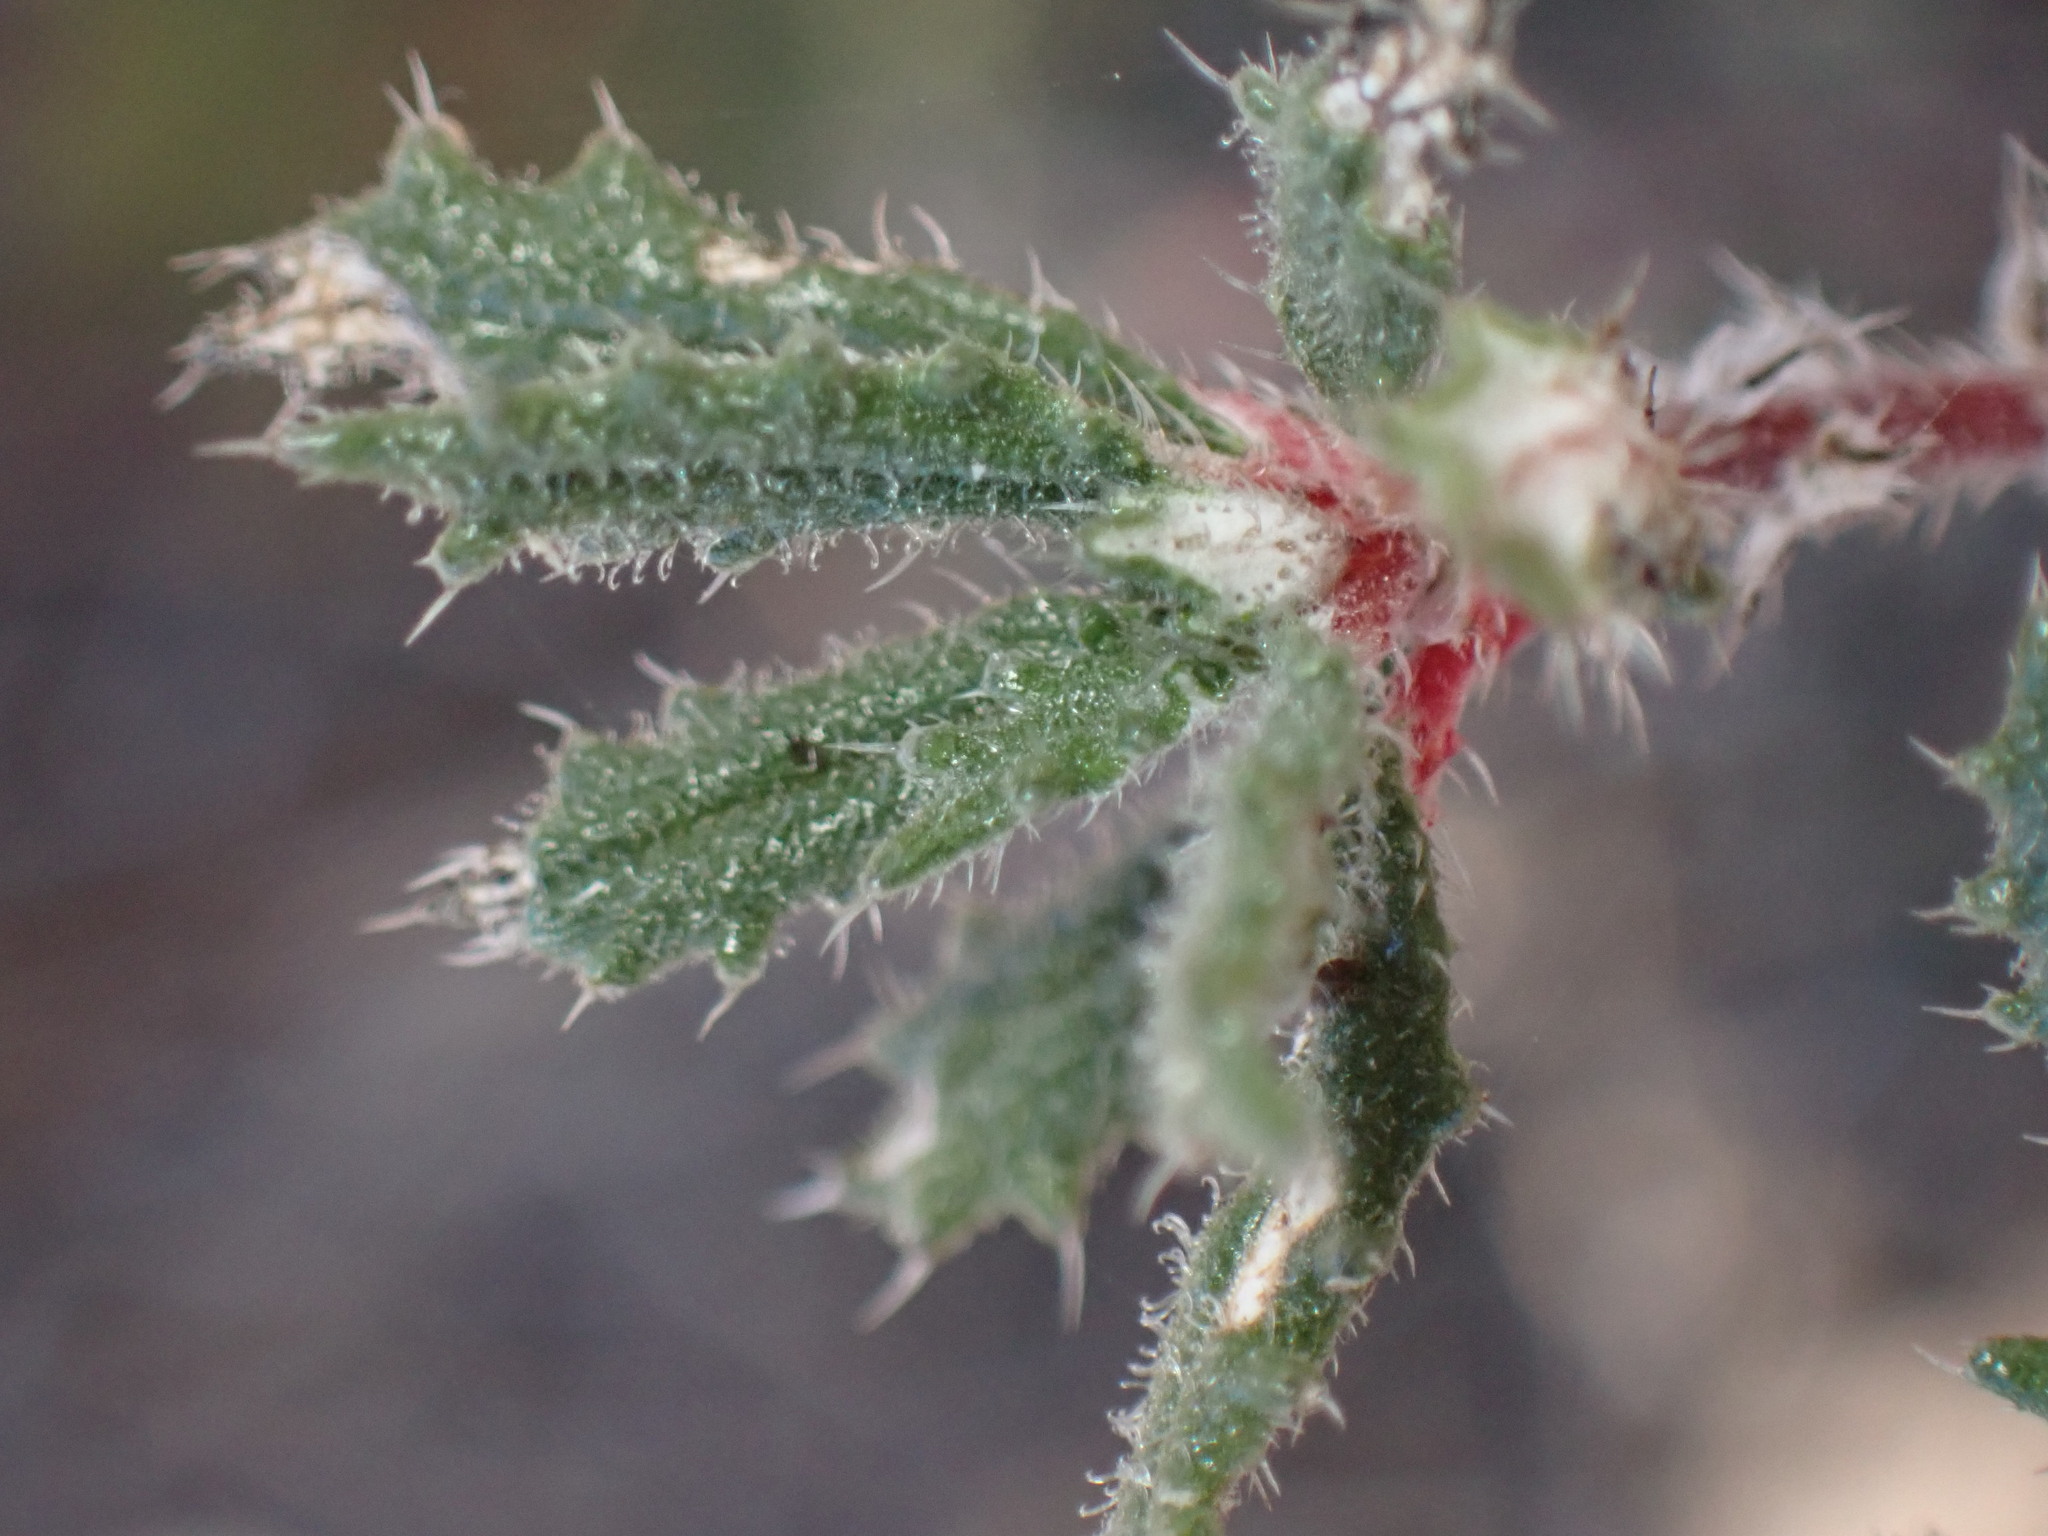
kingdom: Plantae
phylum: Tracheophyta
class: Magnoliopsida
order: Rosales
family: Urticaceae
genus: Forsskaolea
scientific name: Forsskaolea angustifolia
